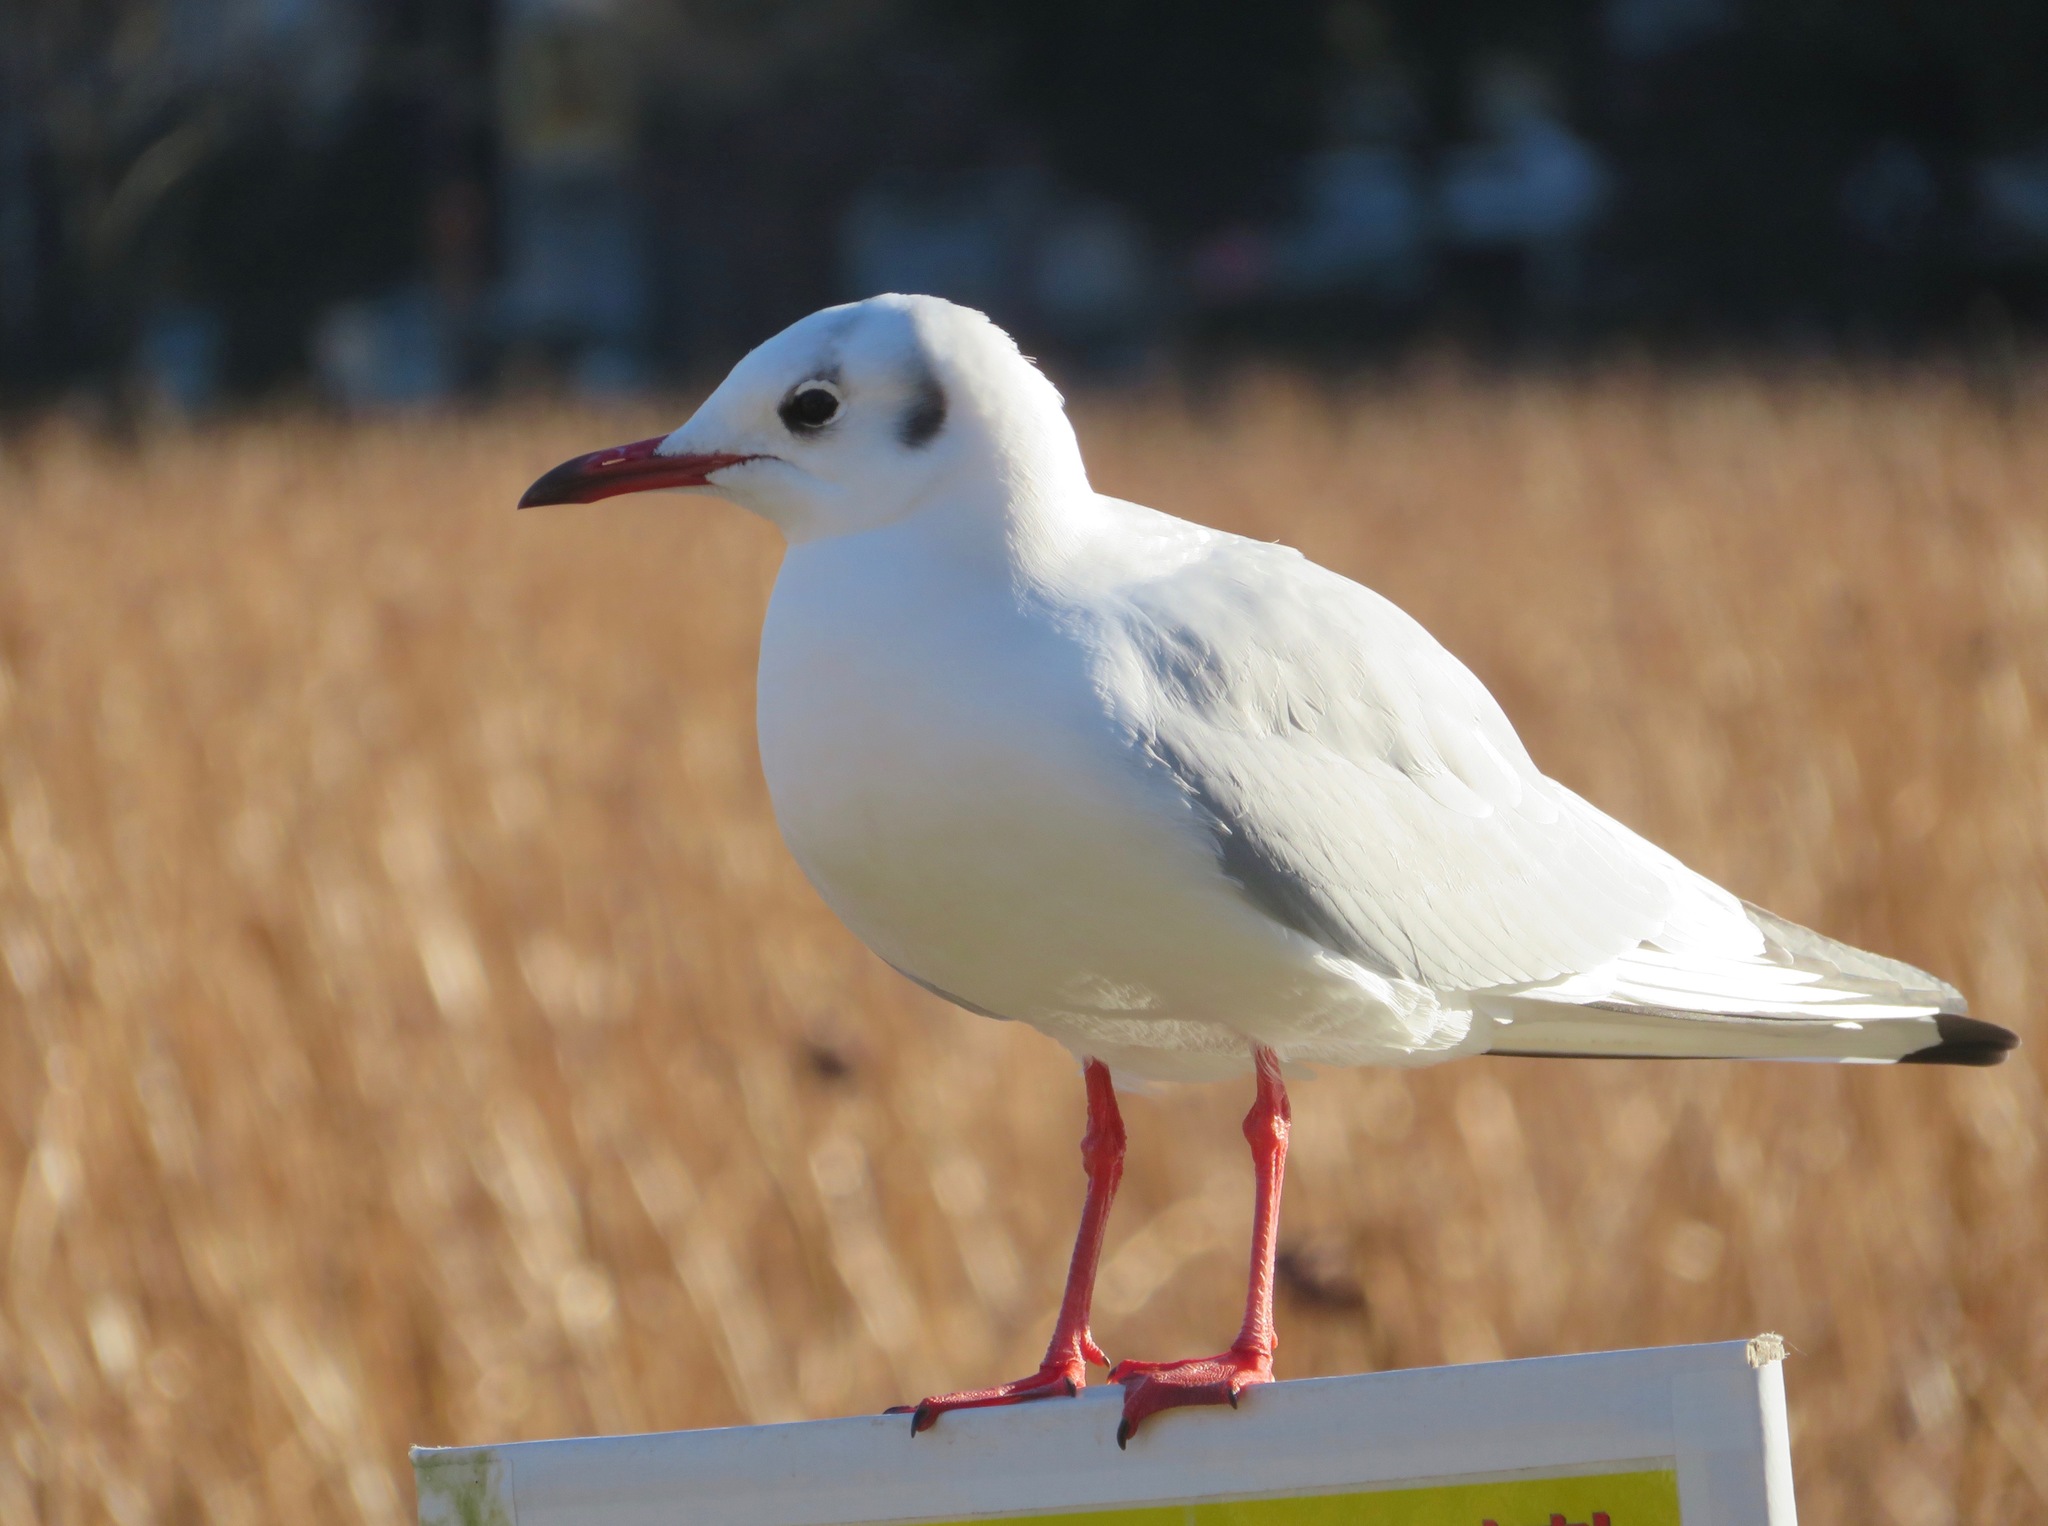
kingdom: Animalia
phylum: Chordata
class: Aves
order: Charadriiformes
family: Laridae
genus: Chroicocephalus
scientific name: Chroicocephalus ridibundus
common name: Black-headed gull
